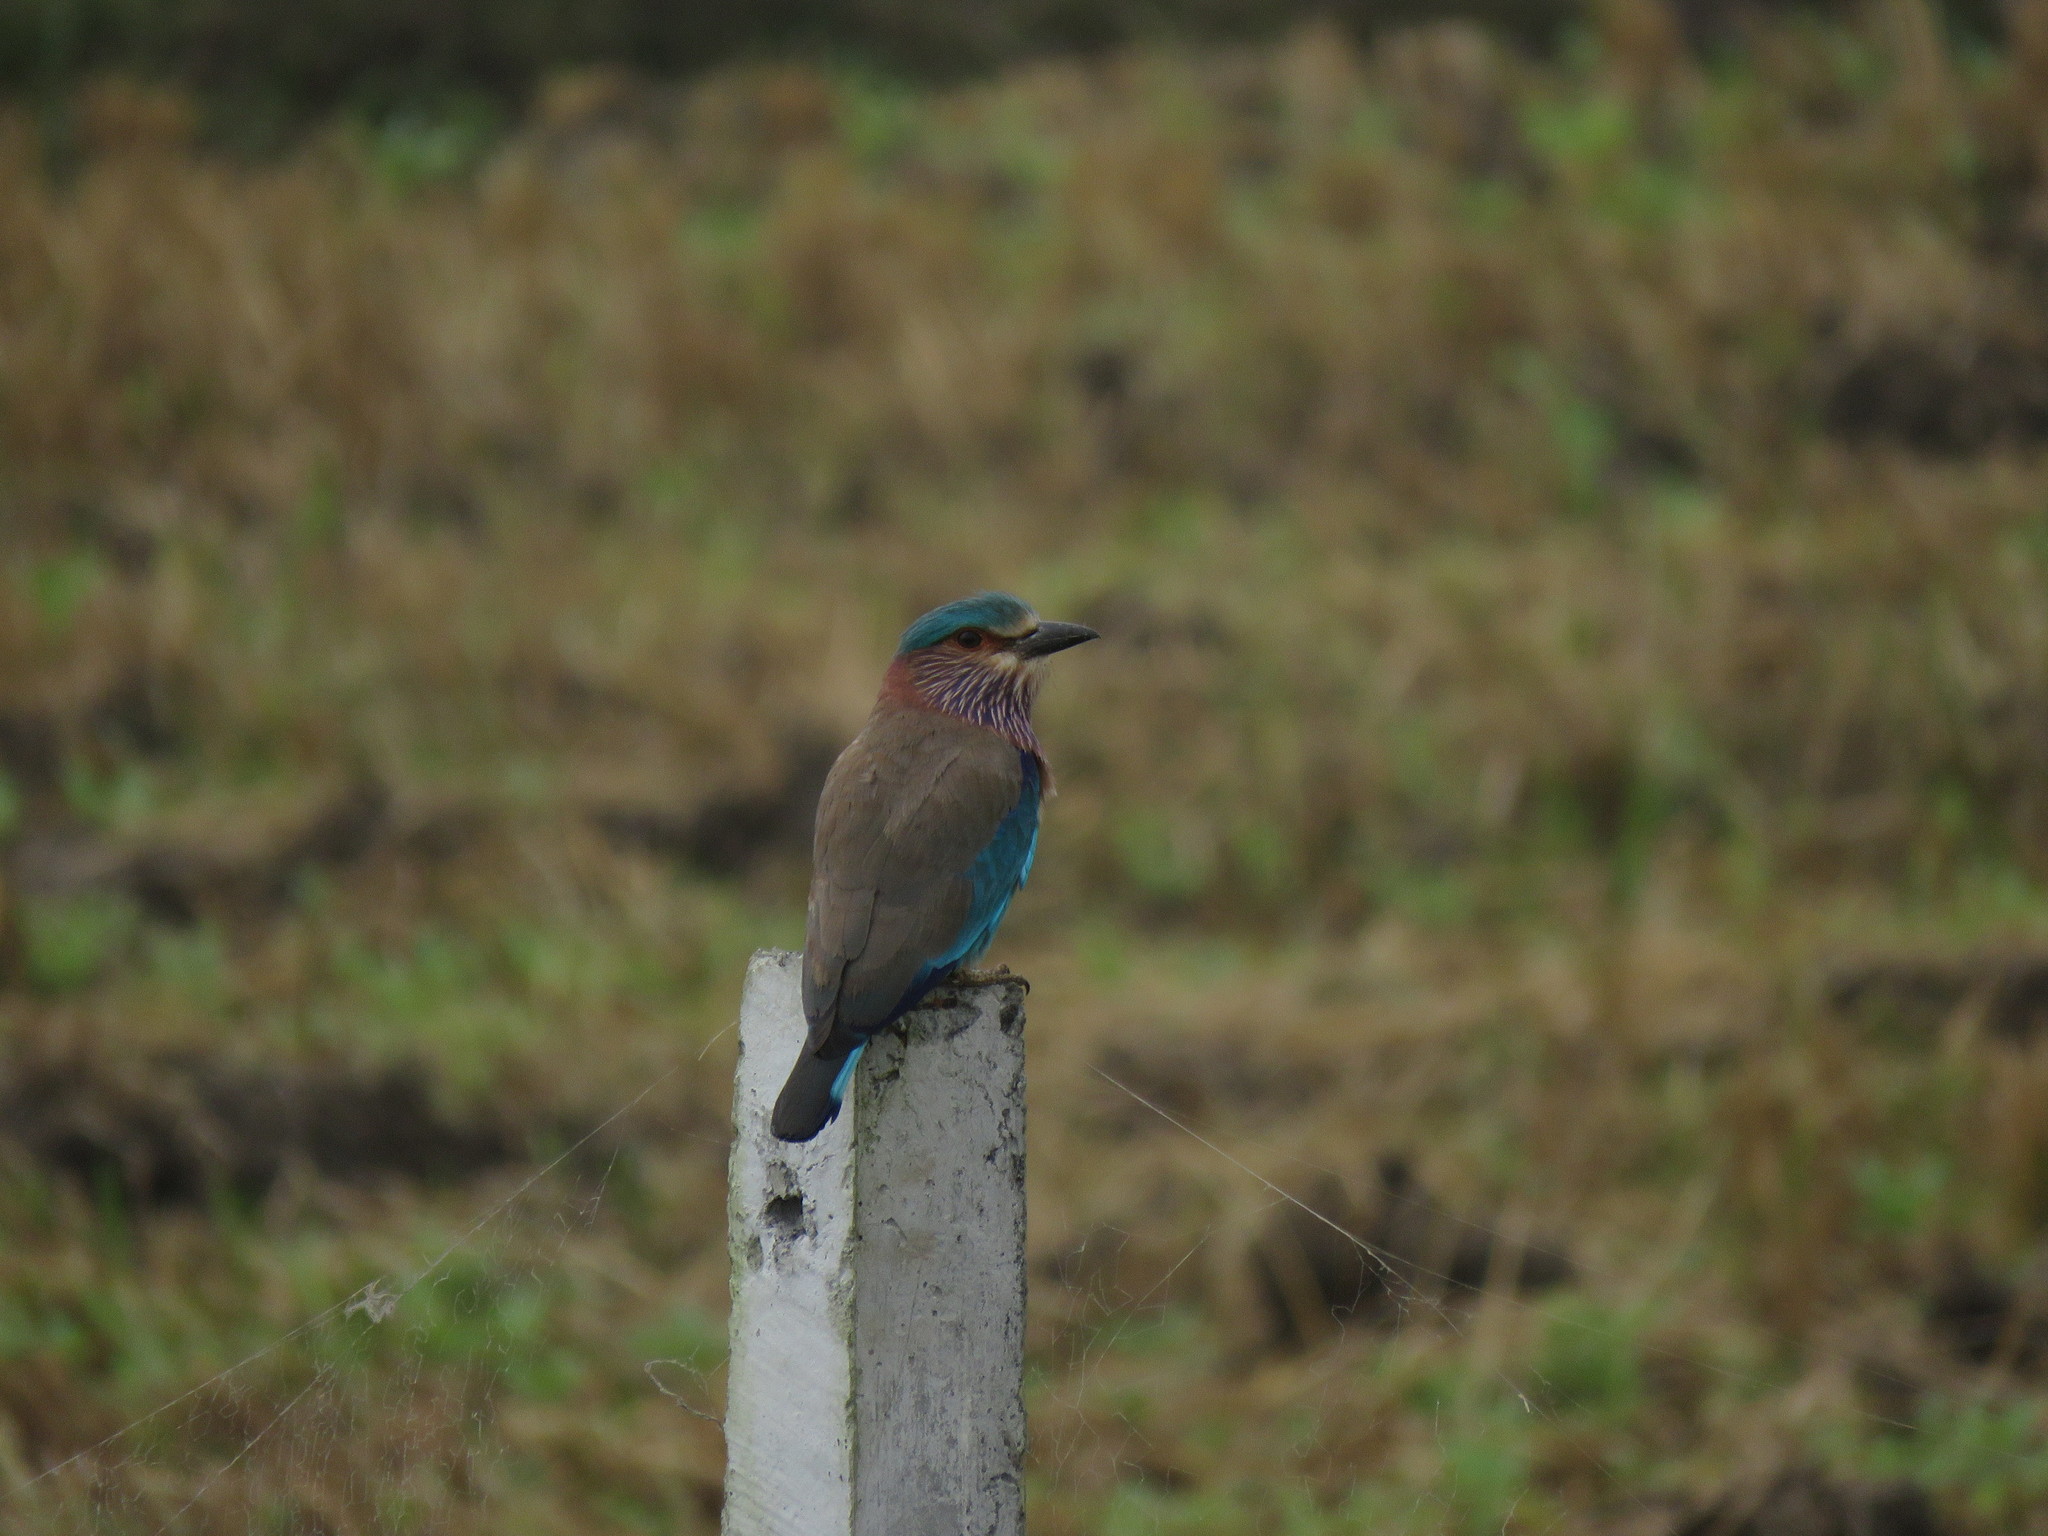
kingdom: Animalia
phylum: Chordata
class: Aves
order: Coraciiformes
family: Coraciidae
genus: Coracias
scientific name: Coracias benghalensis
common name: Indian roller
